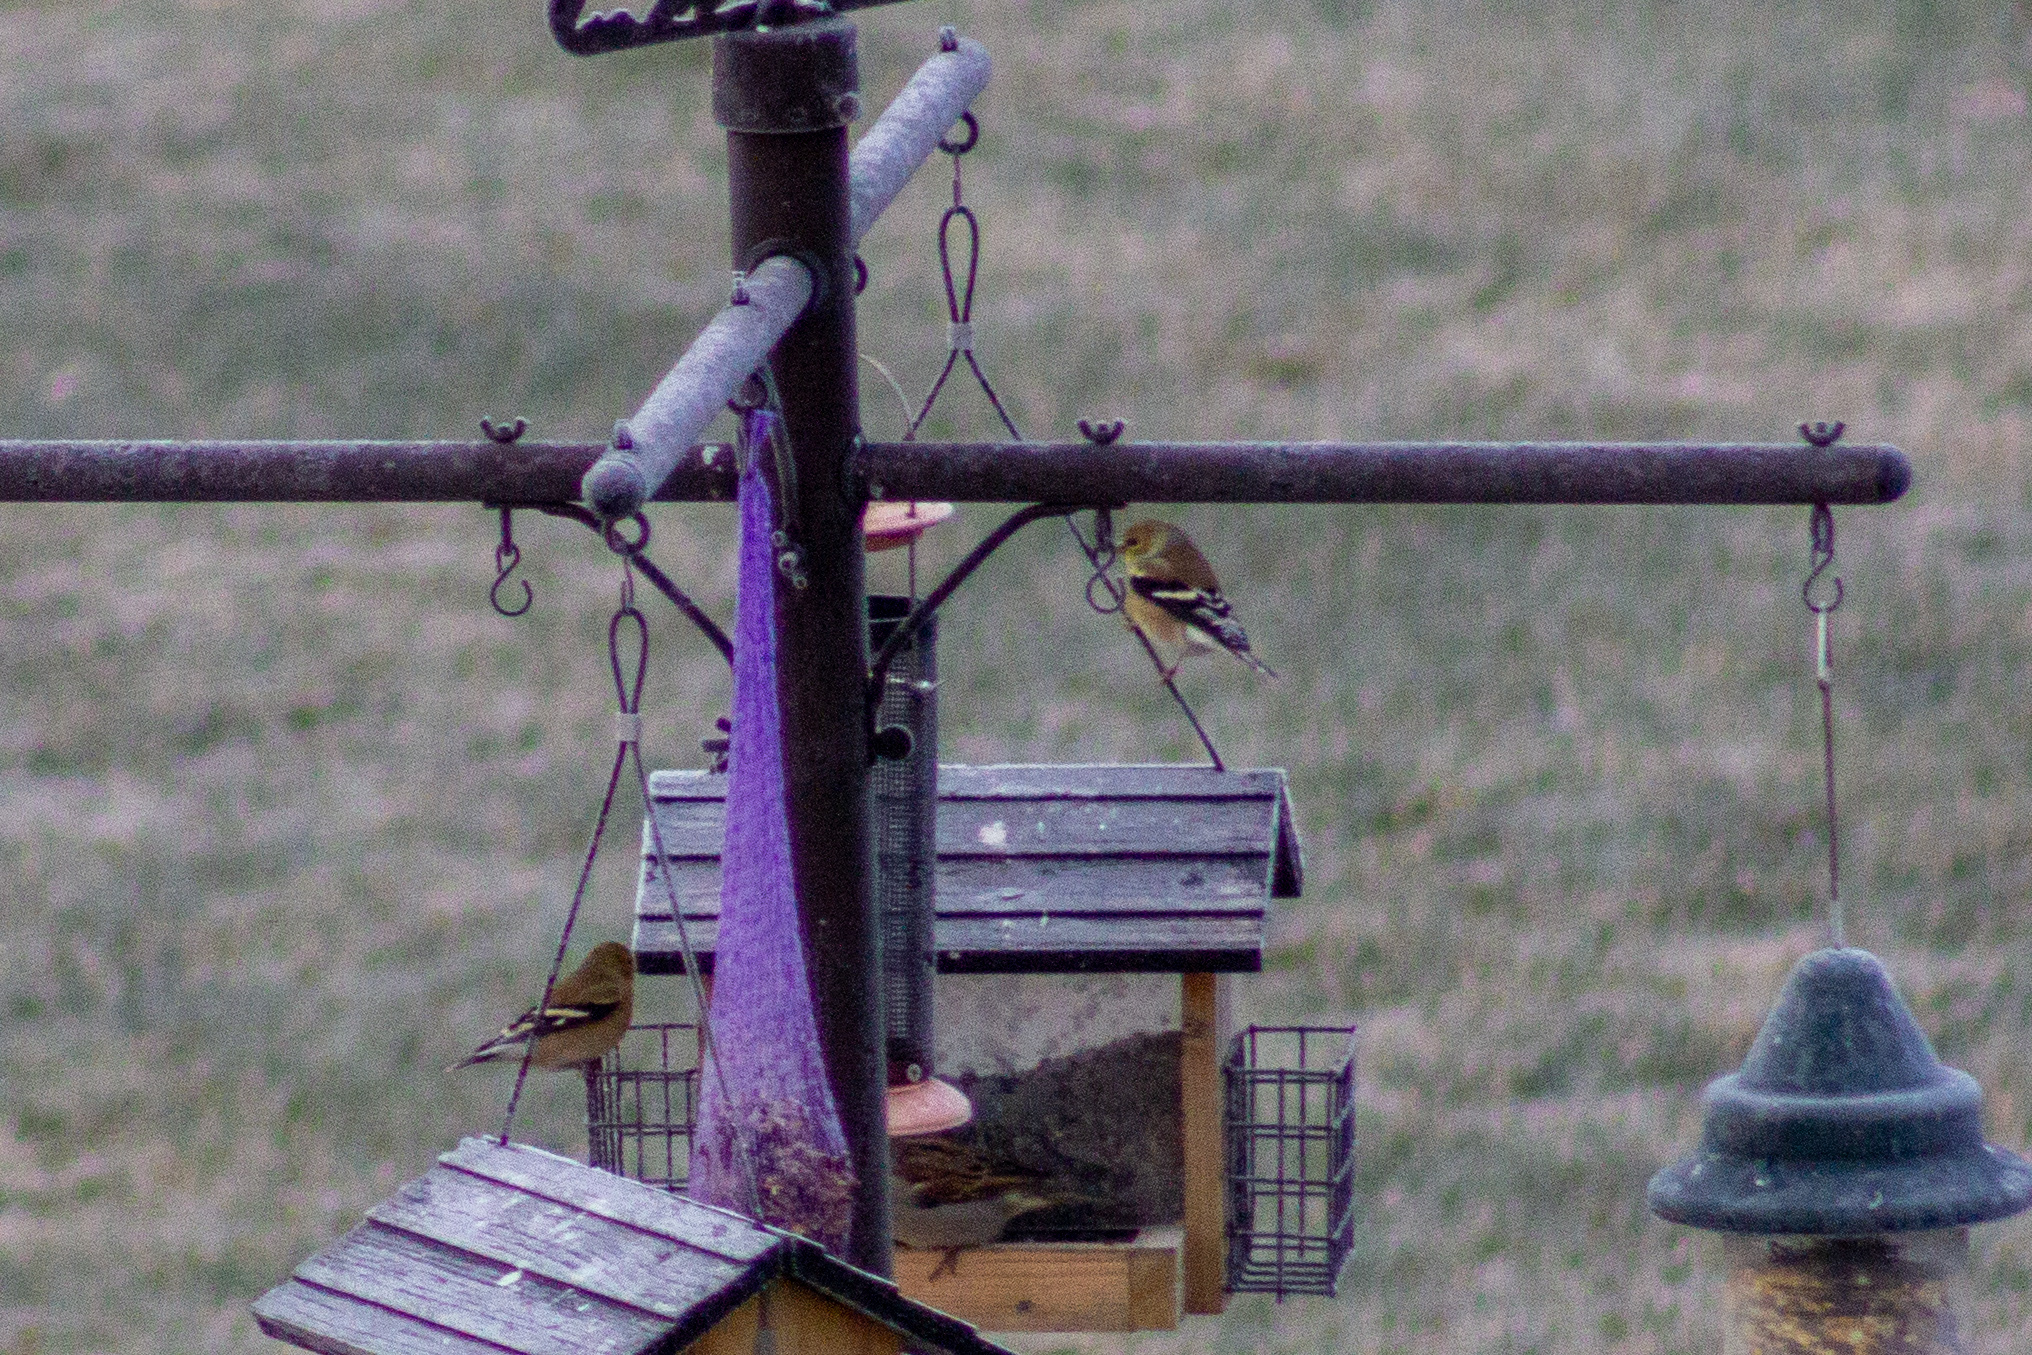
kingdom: Animalia
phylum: Chordata
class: Aves
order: Passeriformes
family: Fringillidae
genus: Spinus
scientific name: Spinus tristis
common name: American goldfinch
